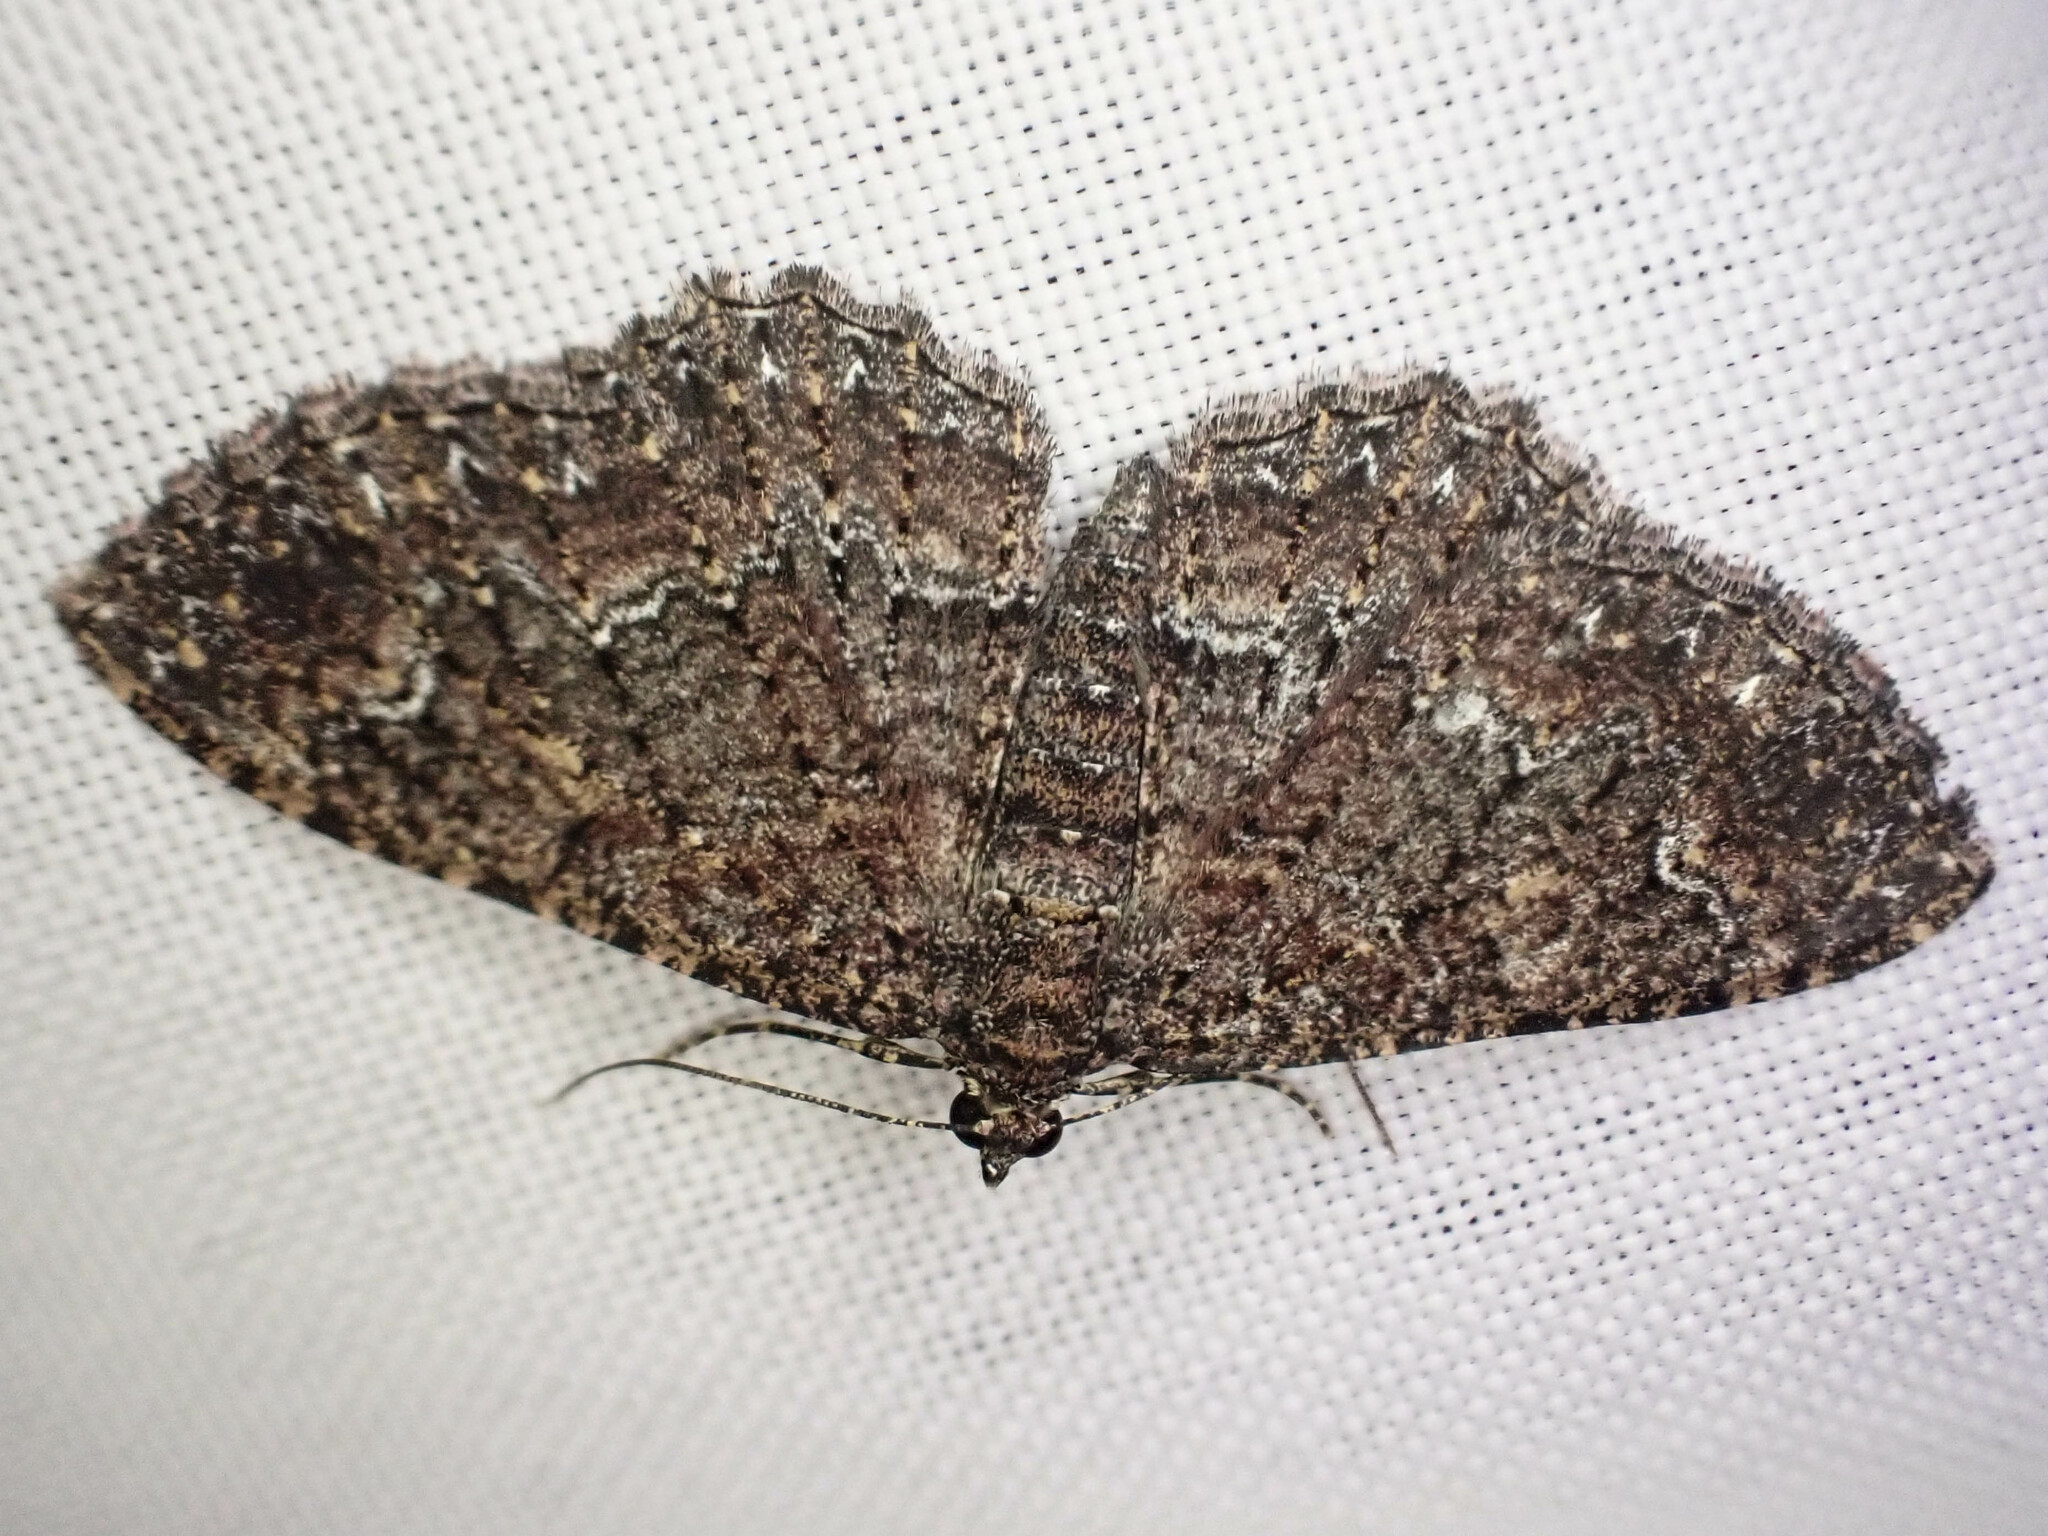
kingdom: Animalia
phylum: Arthropoda
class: Insecta
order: Lepidoptera
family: Geometridae
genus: Disclisioprocta
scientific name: Disclisioprocta stellata
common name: Somber carpet
